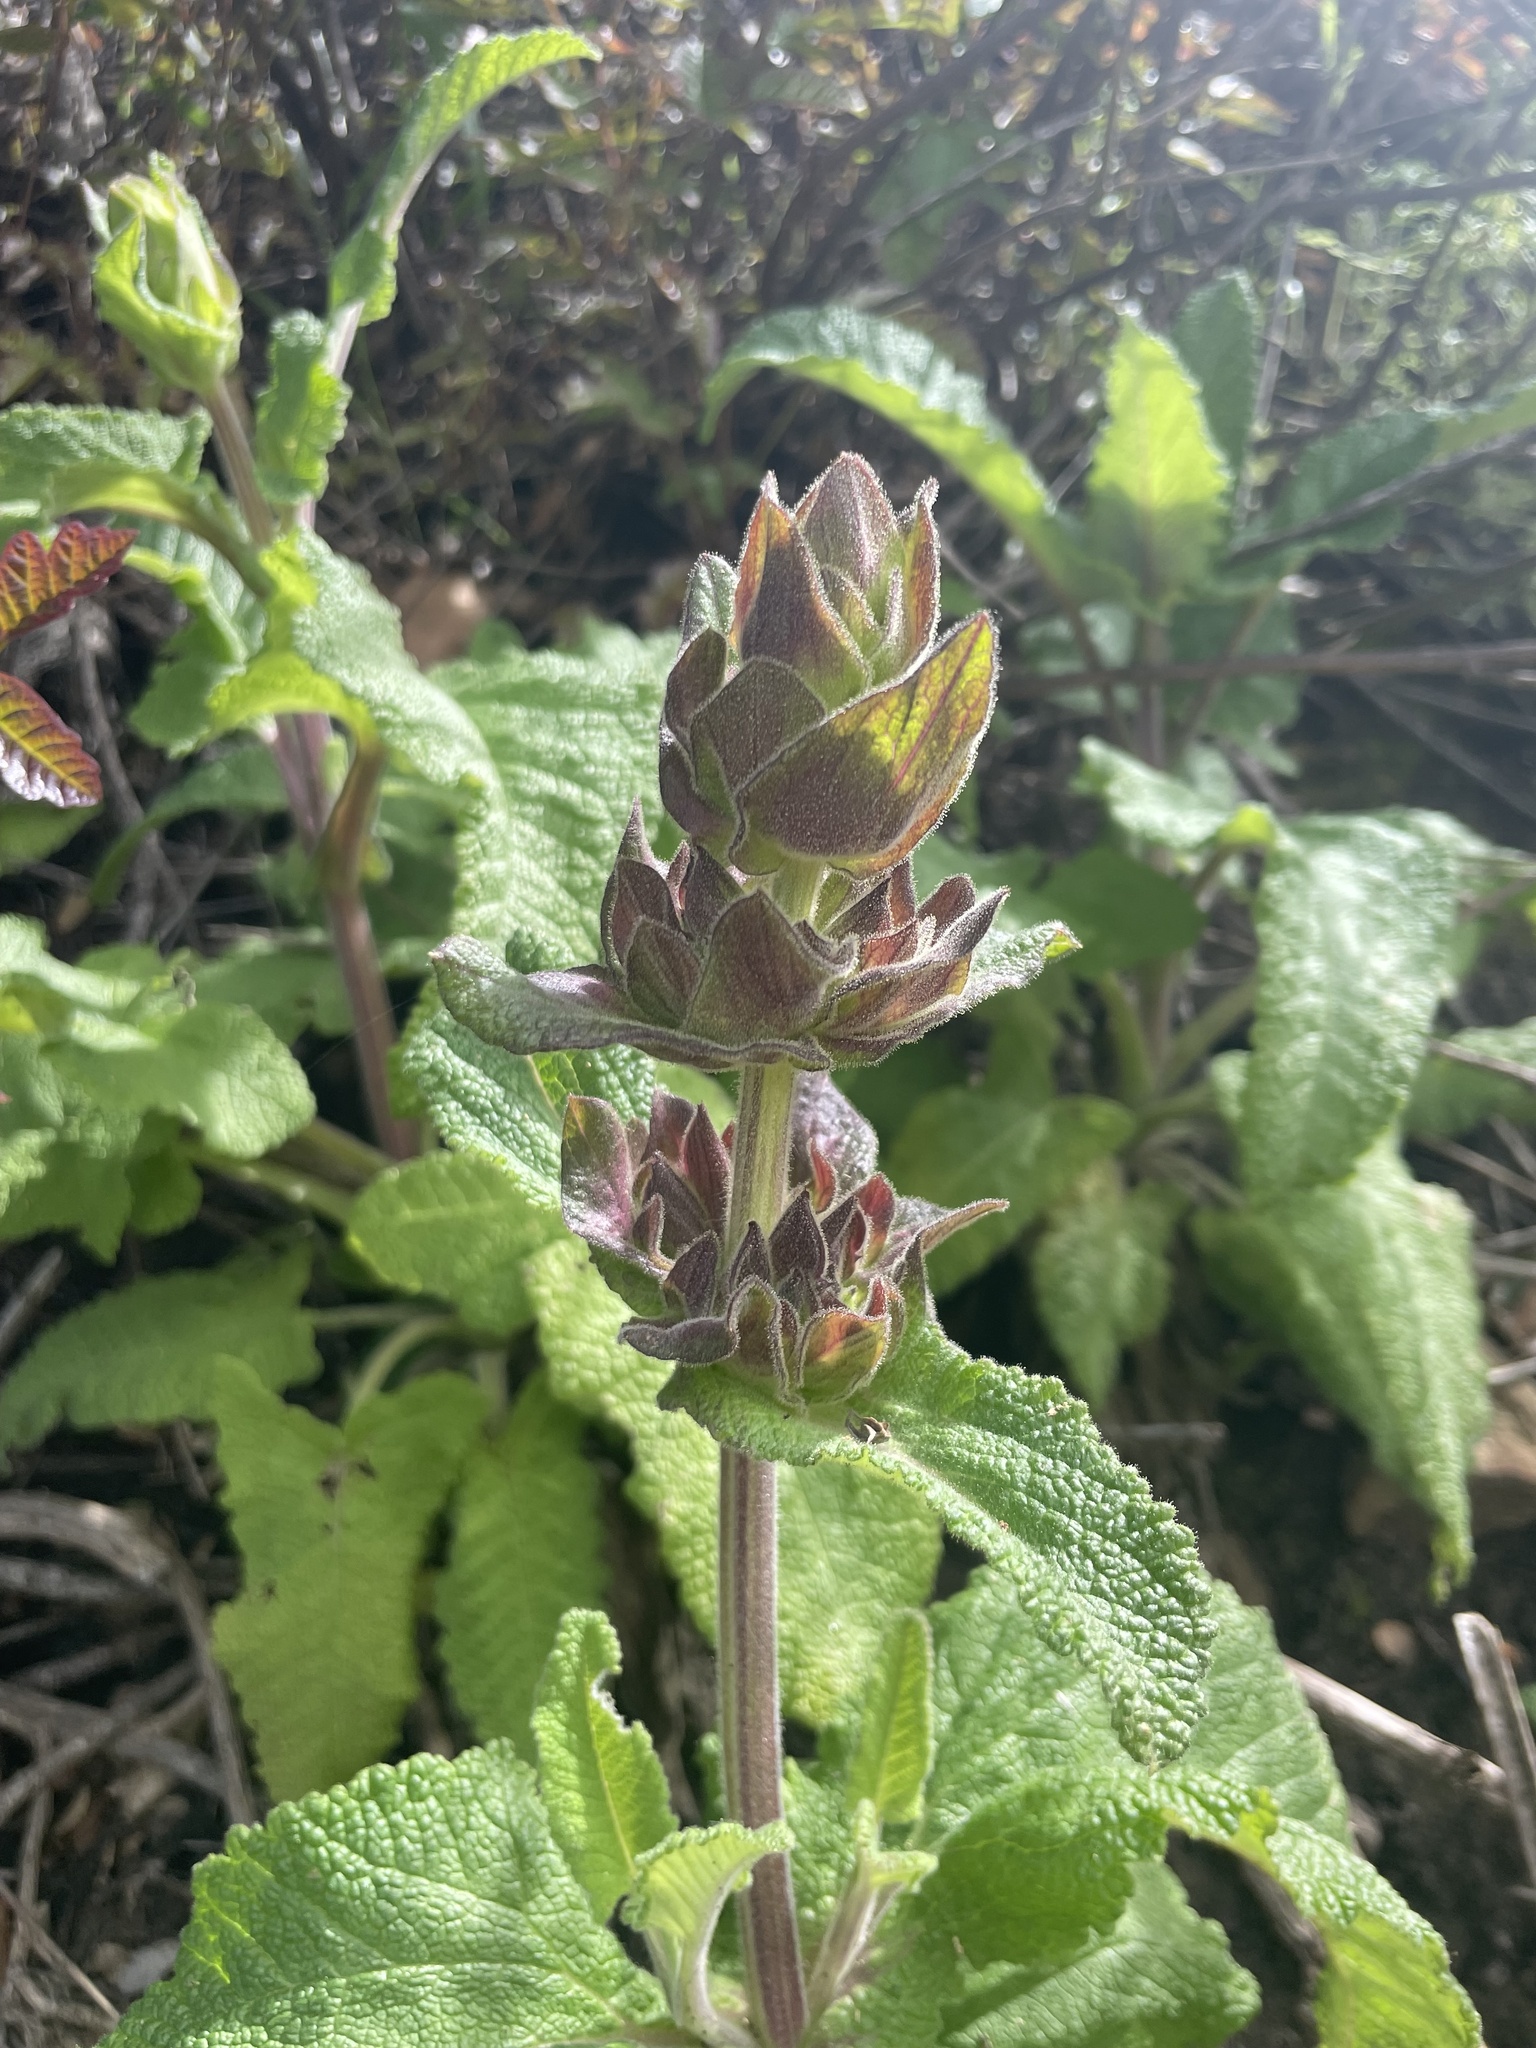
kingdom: Plantae
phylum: Tracheophyta
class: Magnoliopsida
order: Lamiales
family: Lamiaceae
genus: Salvia
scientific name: Salvia spathacea
